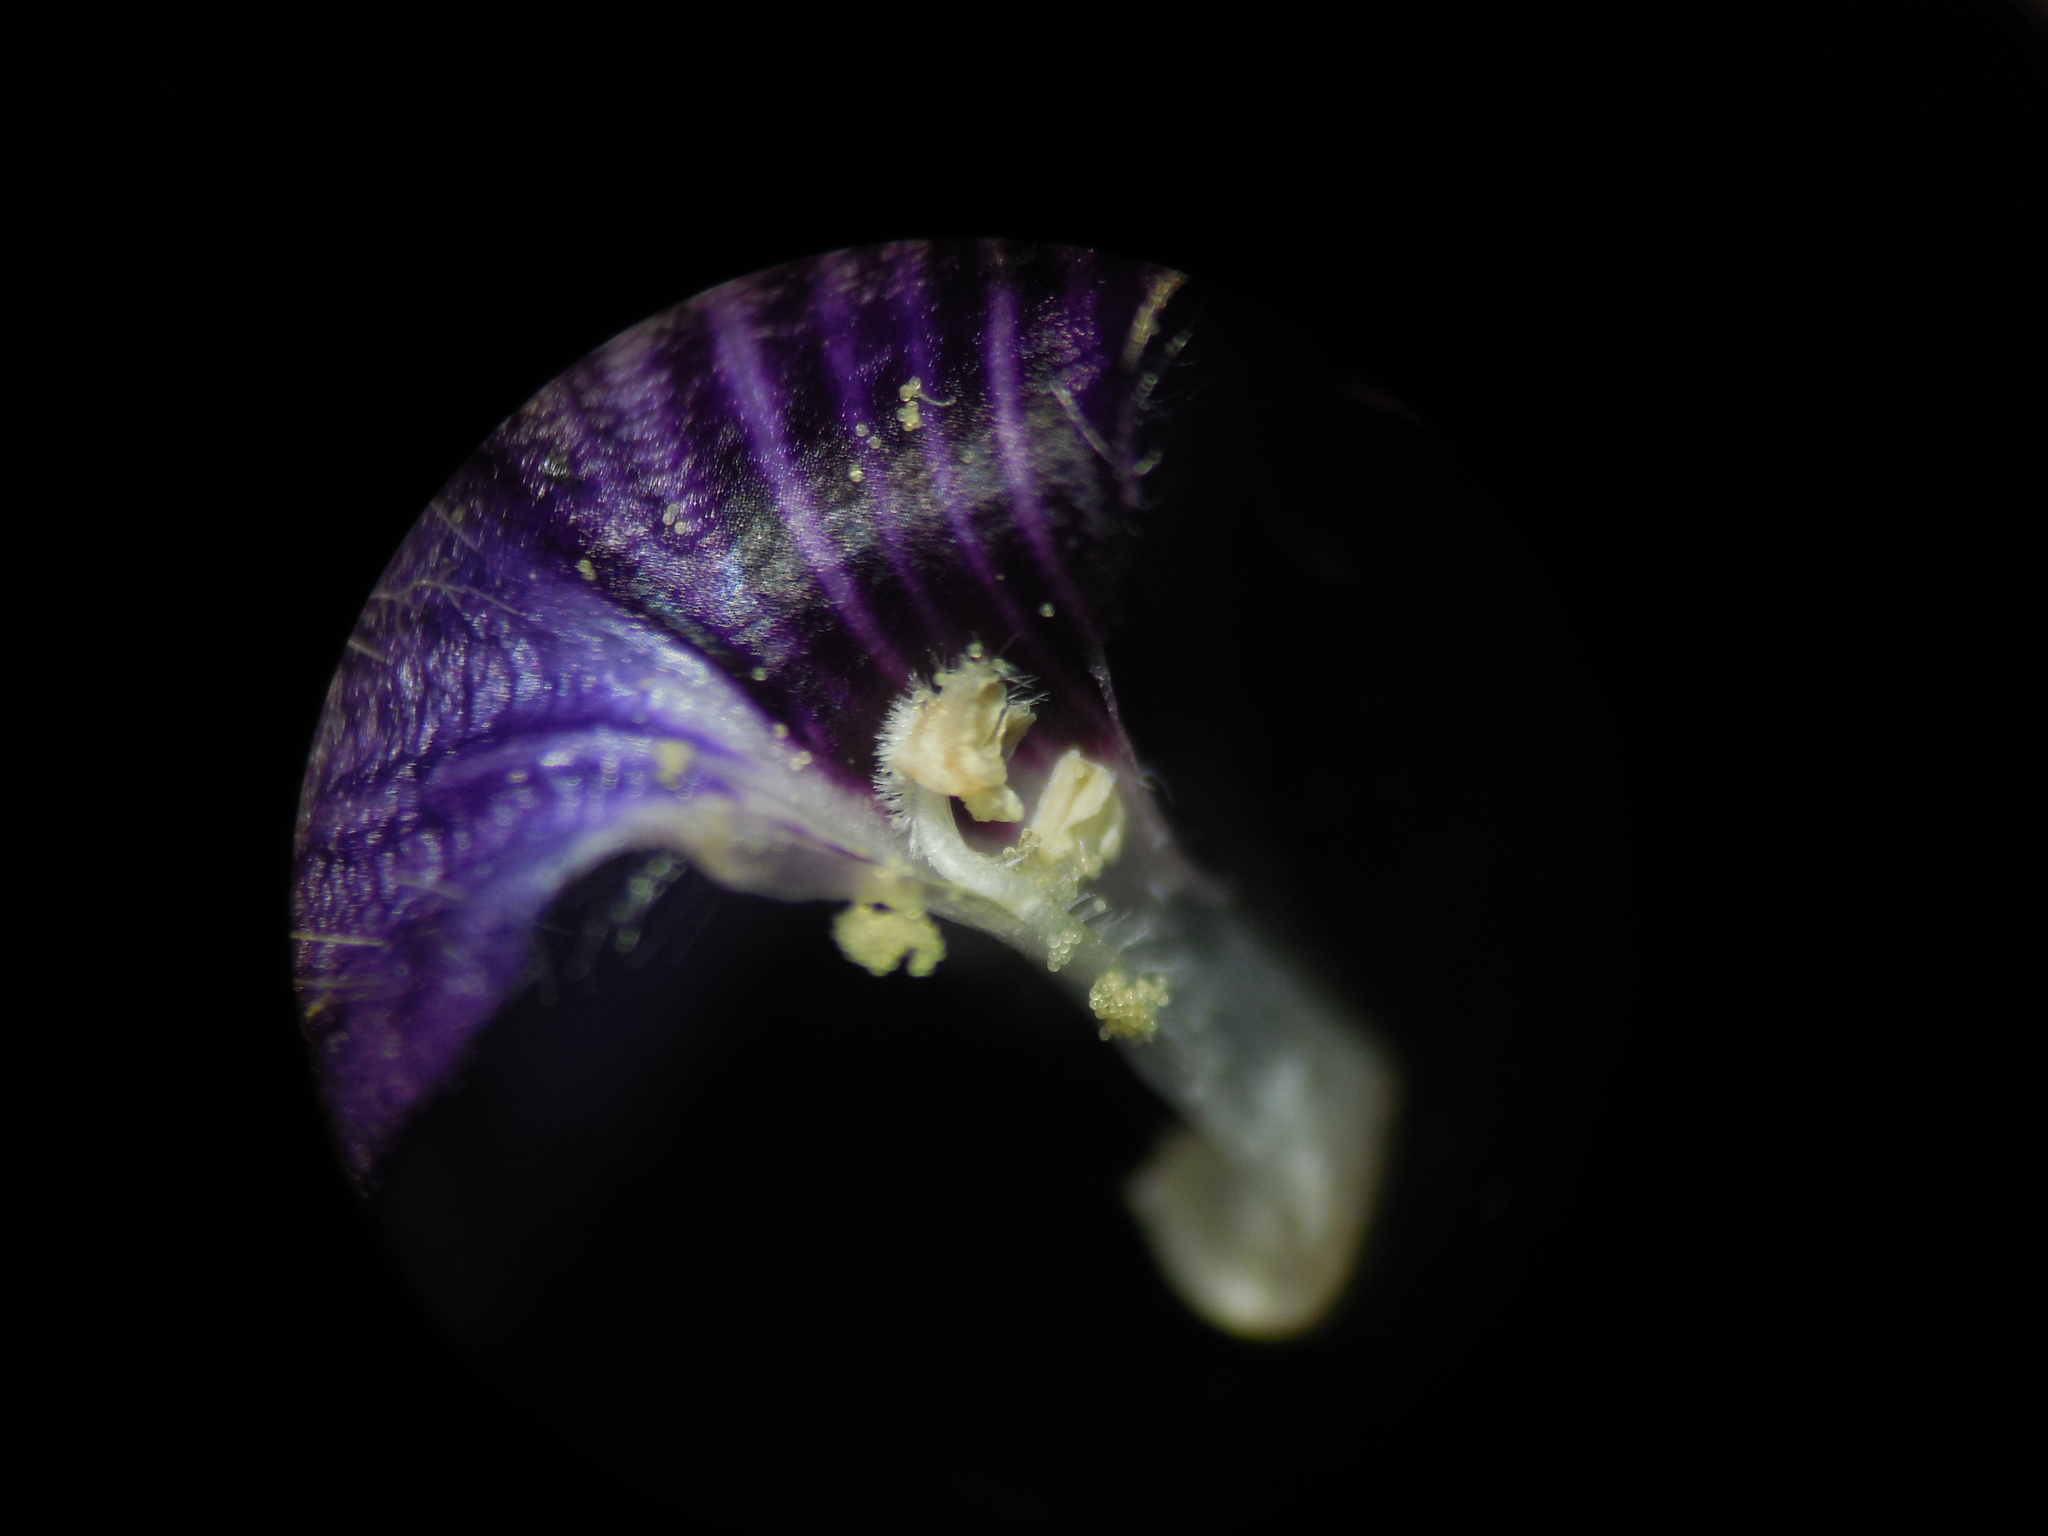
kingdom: Plantae
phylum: Tracheophyta
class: Magnoliopsida
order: Lamiales
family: Acanthaceae
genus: Neuracanthus
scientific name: Neuracanthus sphaerostachyus
